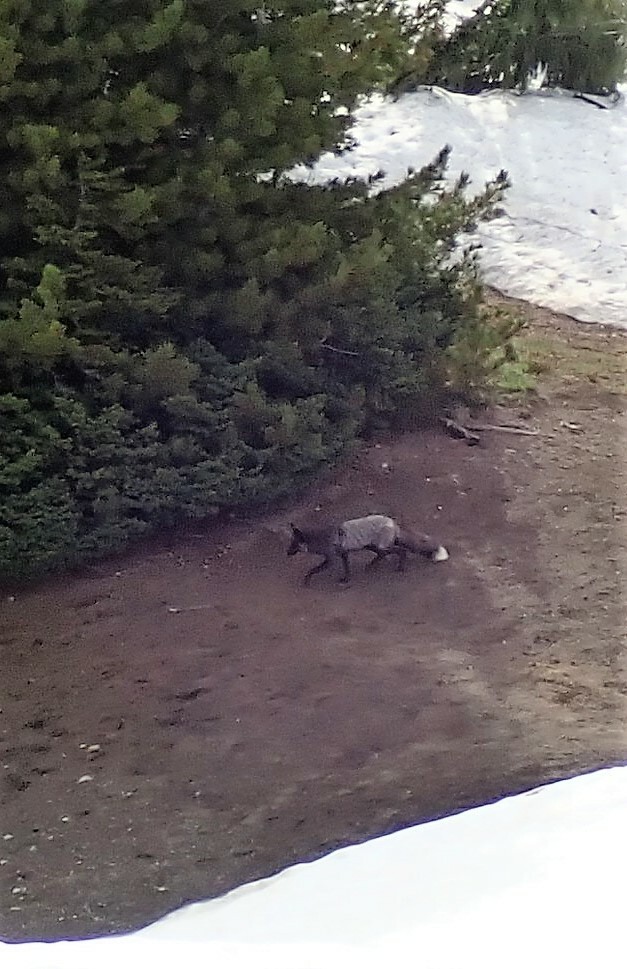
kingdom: Animalia
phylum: Chordata
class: Mammalia
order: Carnivora
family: Canidae
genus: Vulpes
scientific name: Vulpes vulpes
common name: Red fox
